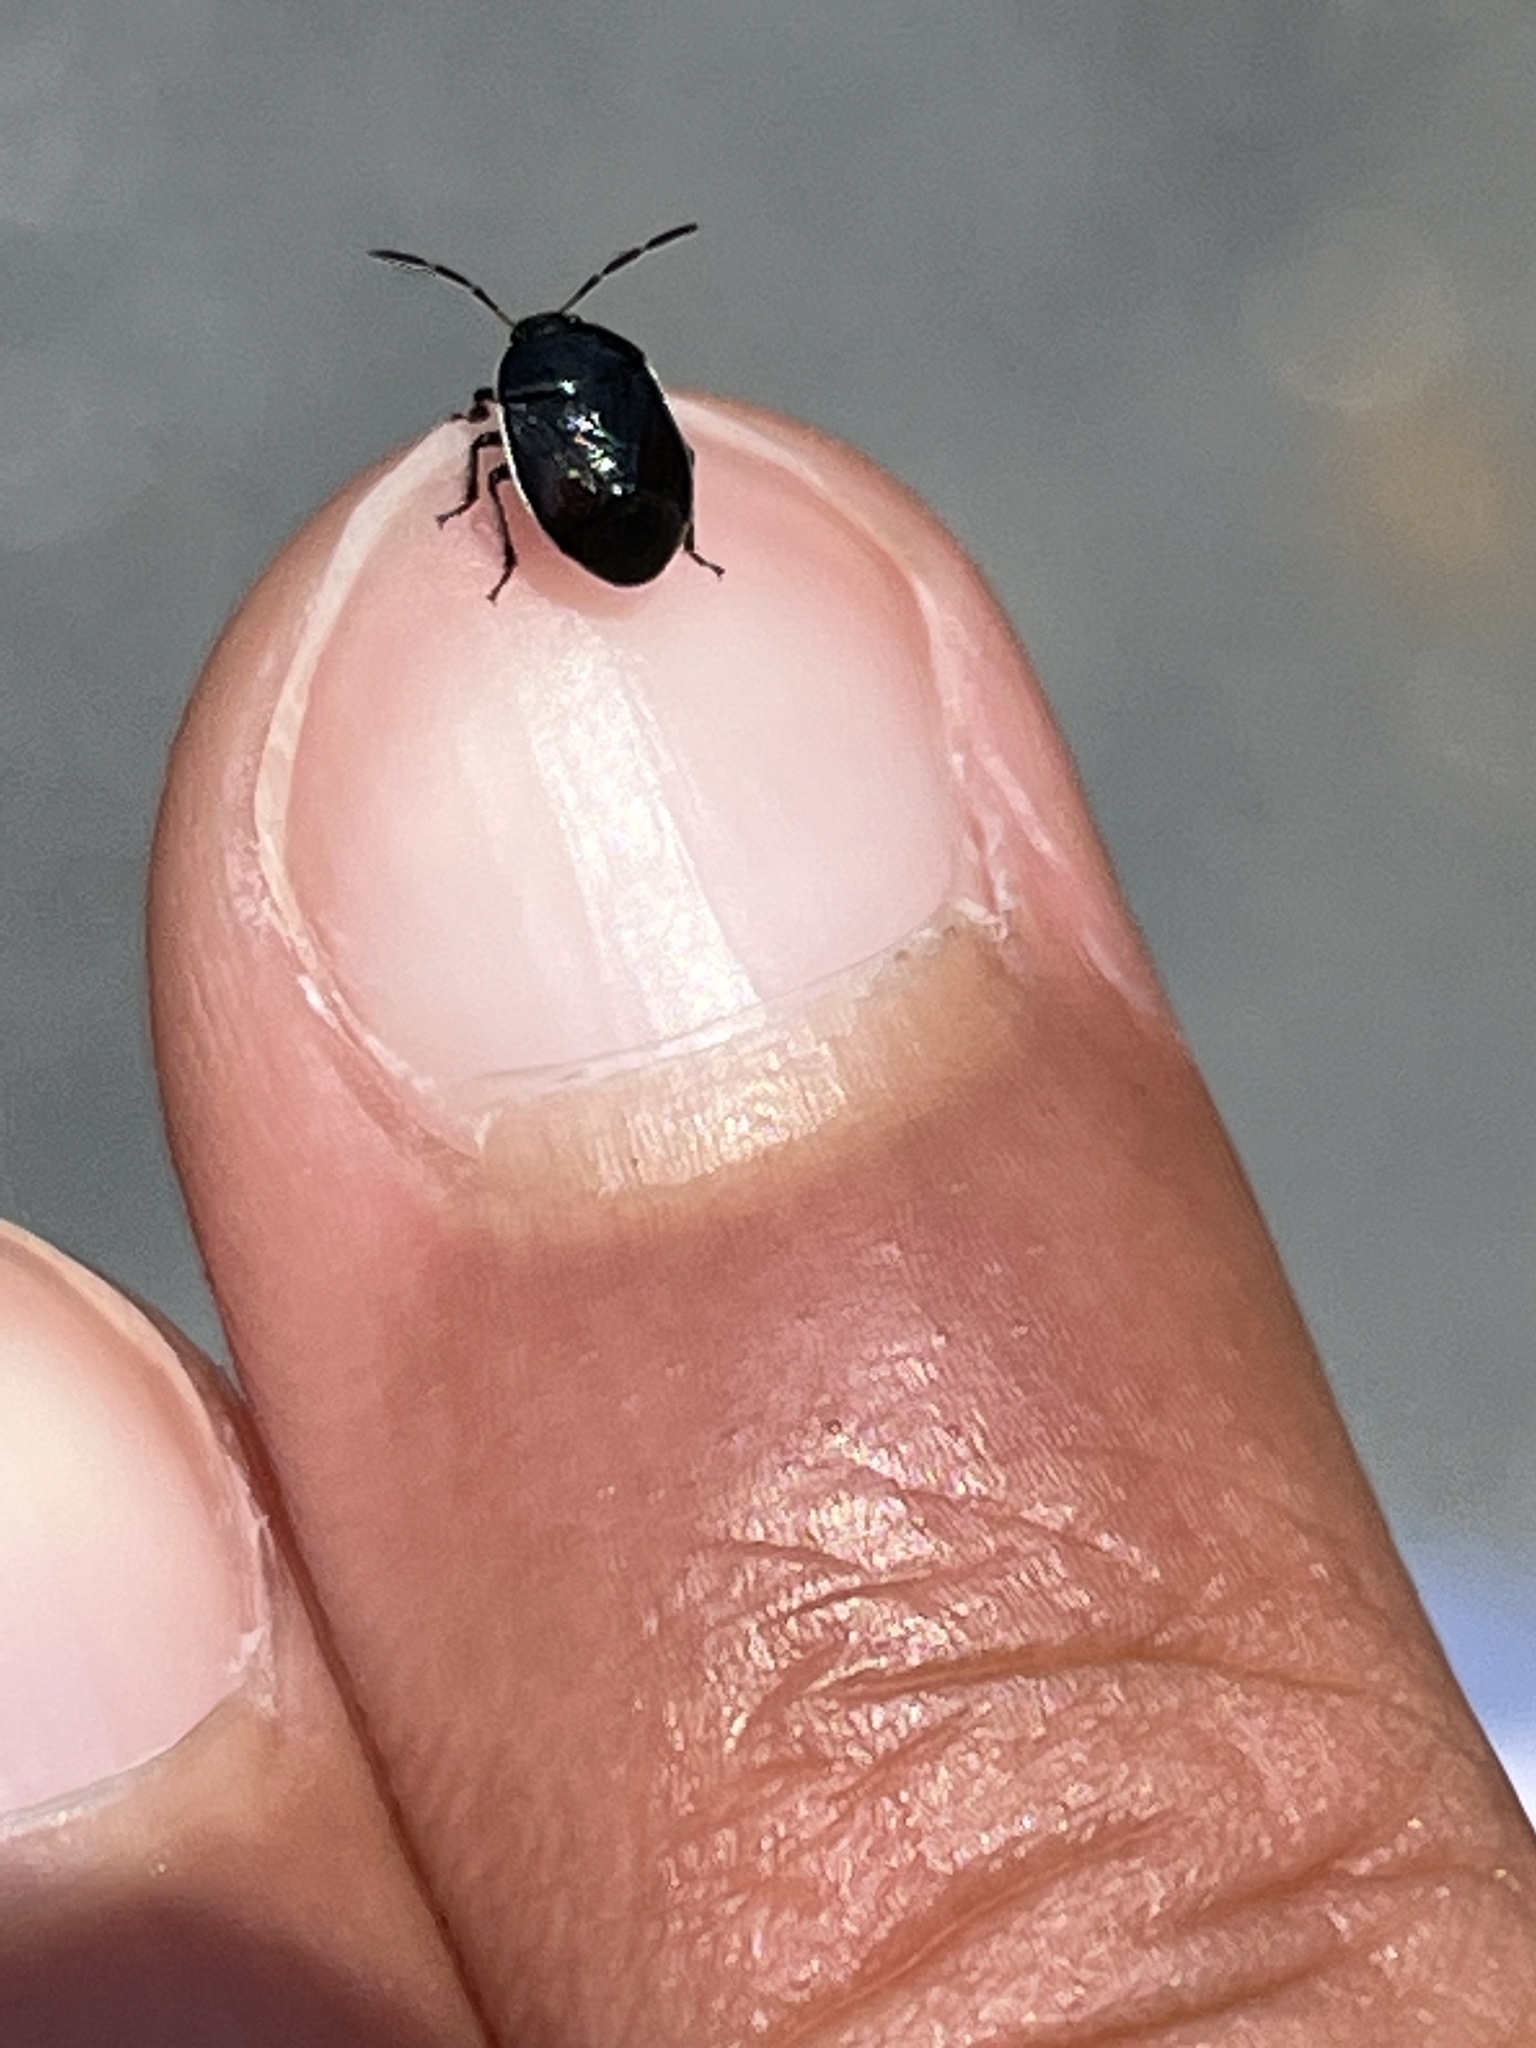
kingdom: Animalia
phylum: Arthropoda
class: Insecta
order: Hemiptera
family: Cydnidae
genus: Sehirus
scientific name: Sehirus cinctus
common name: White-margined burrower bug
